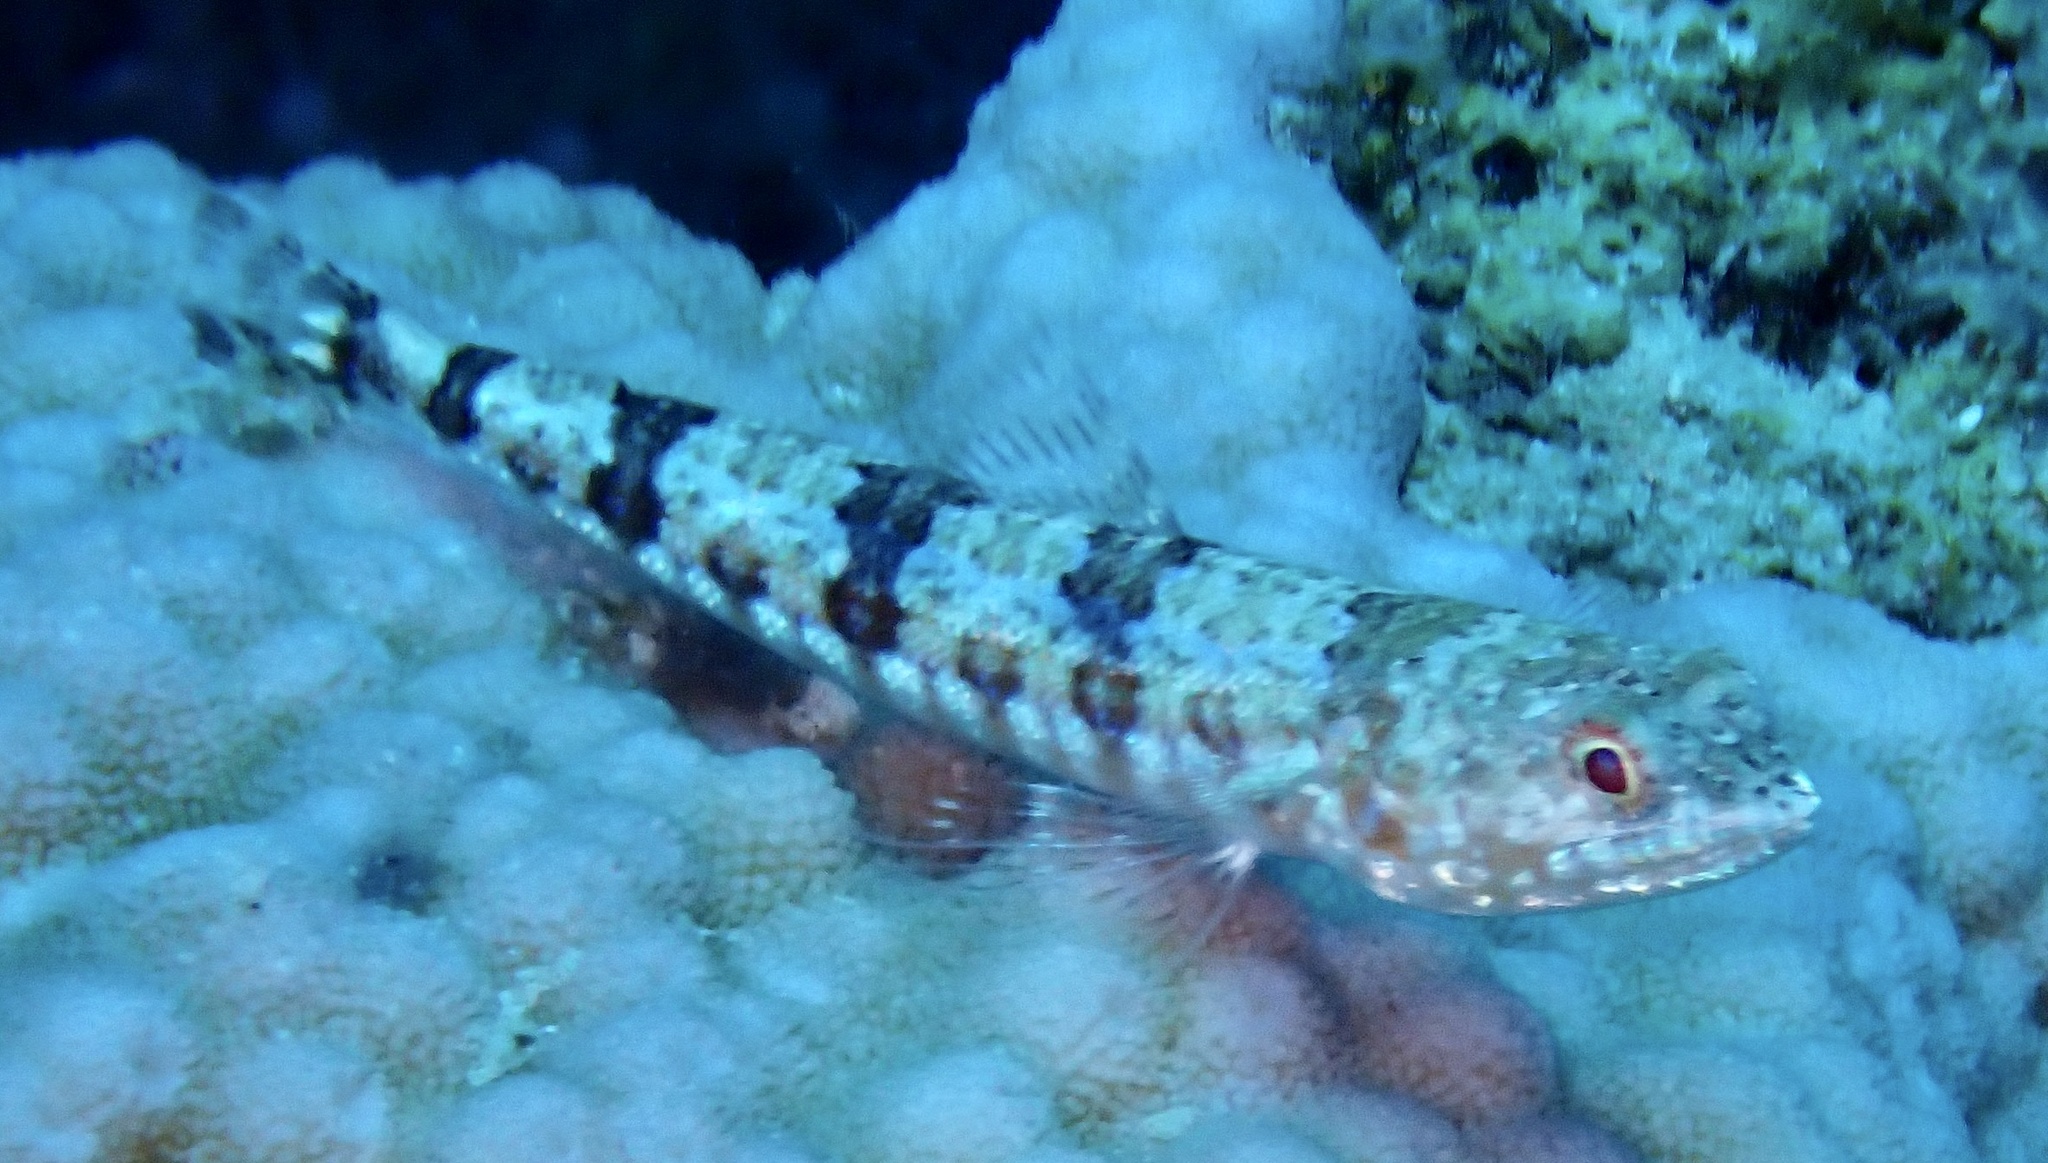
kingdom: Animalia
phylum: Chordata
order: Aulopiformes
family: Synodontidae
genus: Synodus
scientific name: Synodus variegatus
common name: Variegated lizardfish
